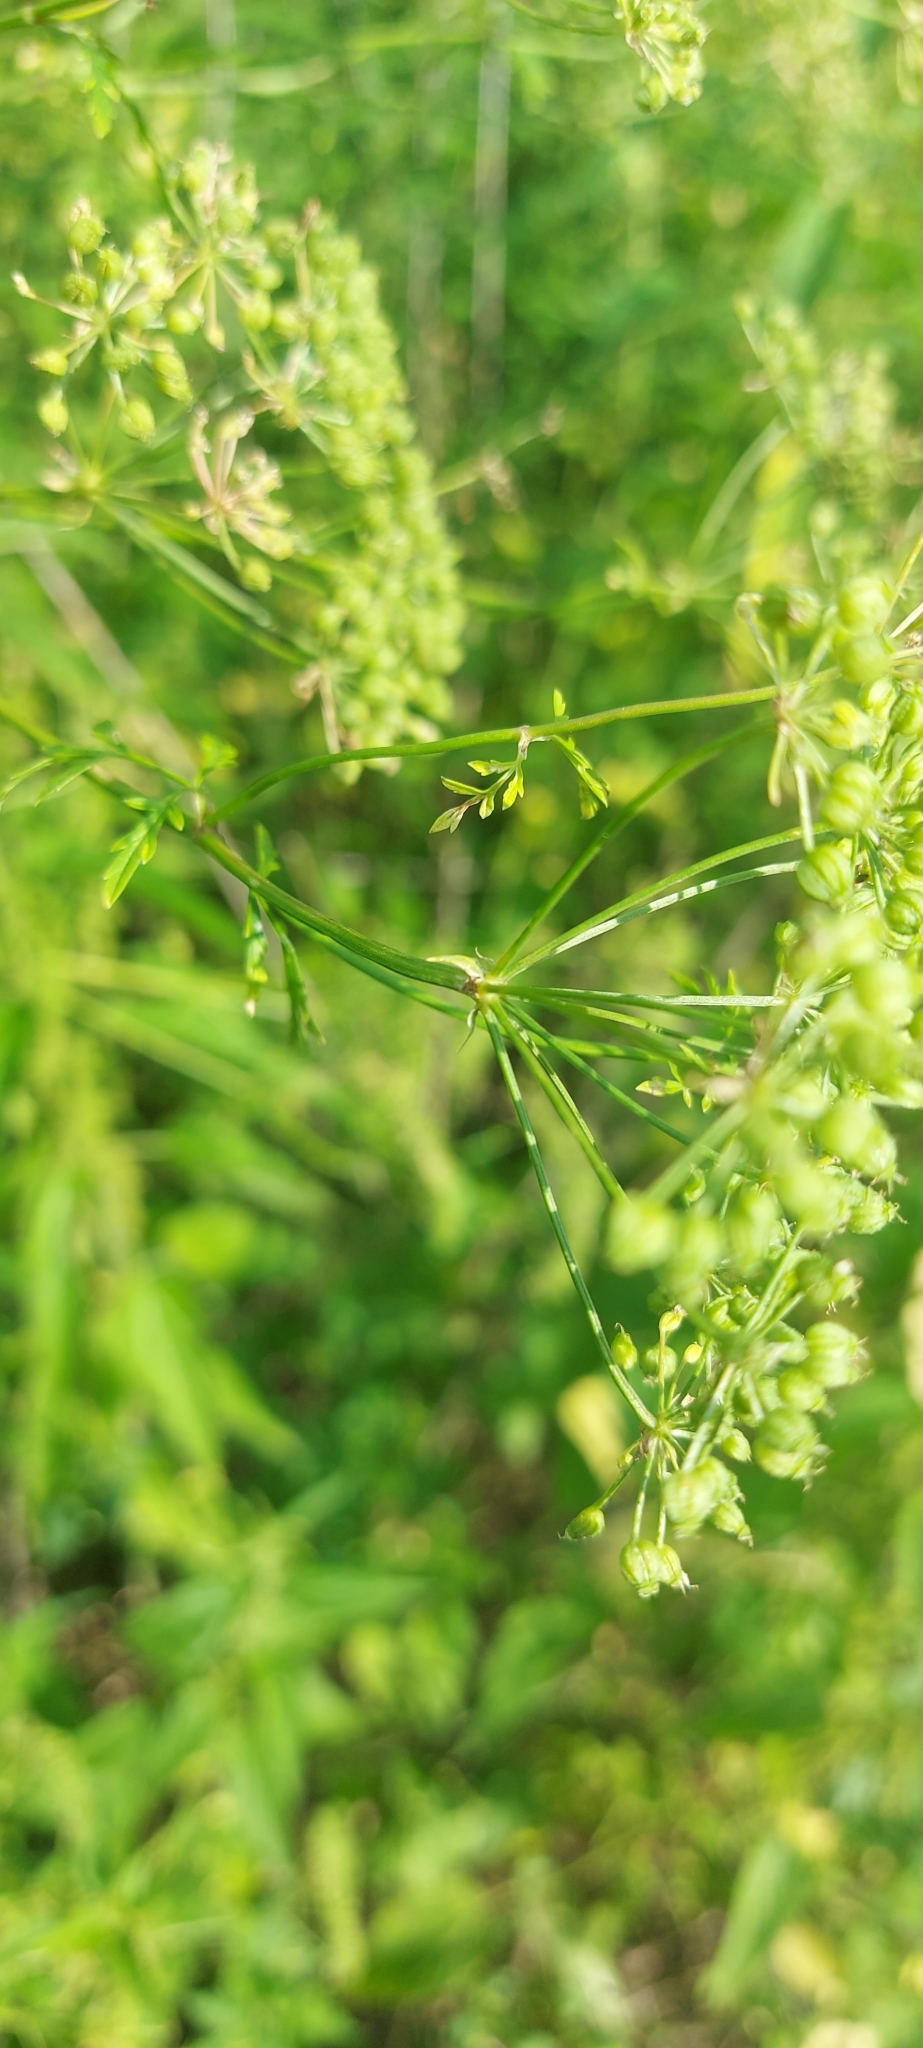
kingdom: Plantae
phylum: Tracheophyta
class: Magnoliopsida
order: Apiales
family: Apiaceae
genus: Conium
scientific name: Conium maculatum
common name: Hemlock
